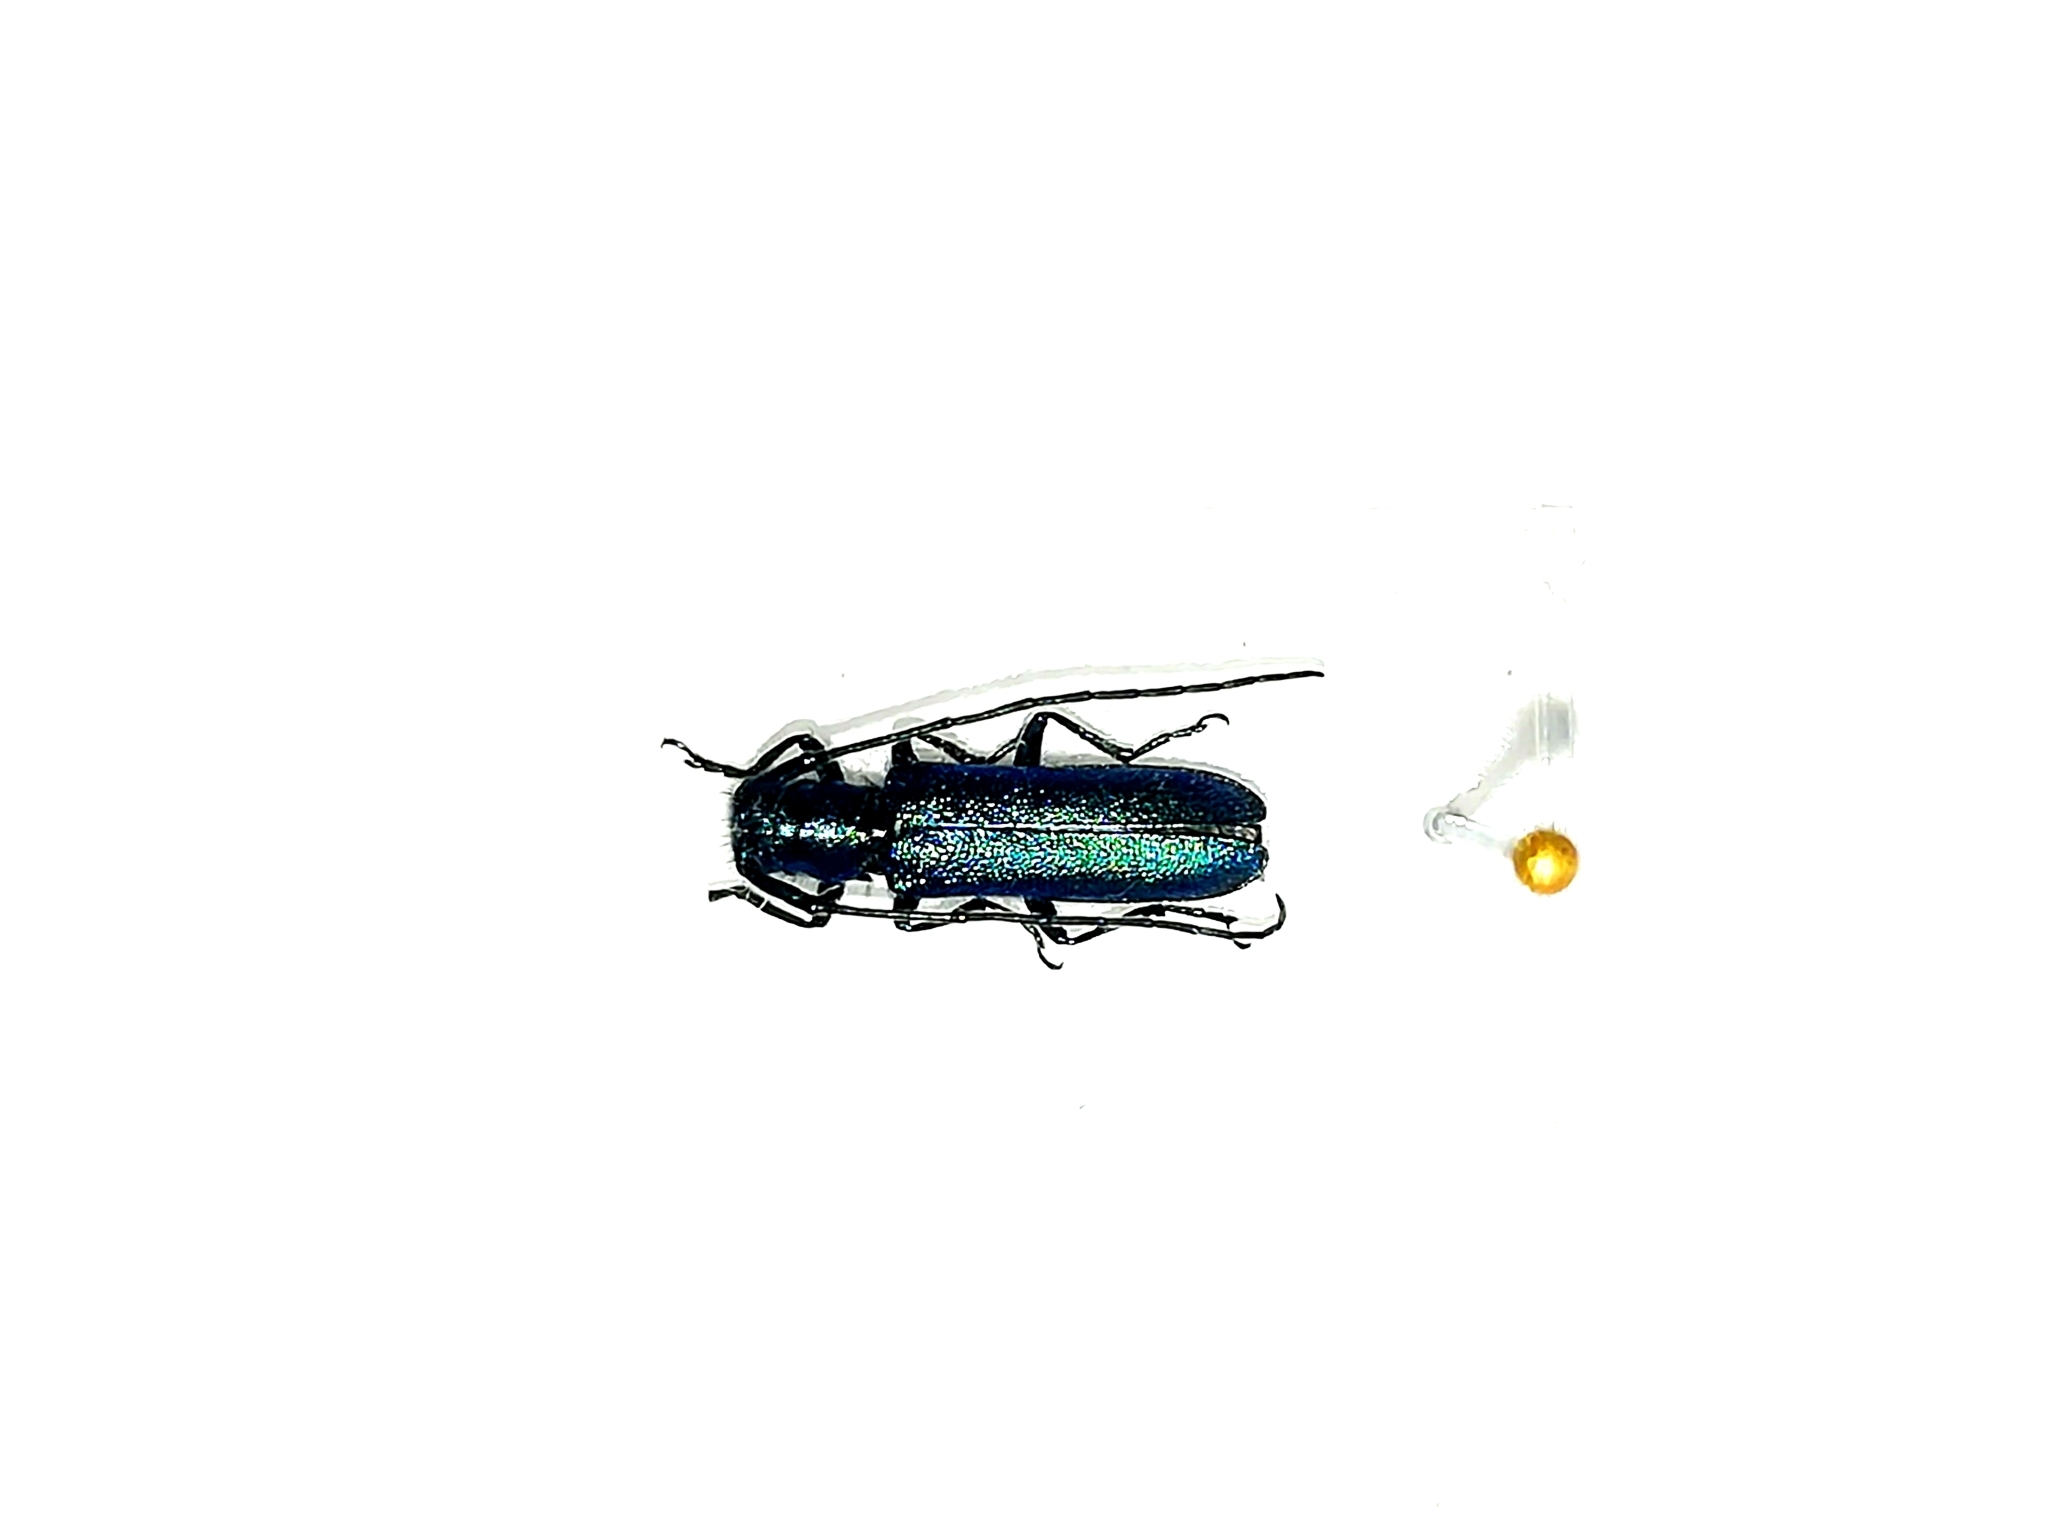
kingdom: Animalia
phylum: Arthropoda
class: Insecta
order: Coleoptera
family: Cerambycidae
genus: Agapanthia
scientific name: Agapanthia intermedia
